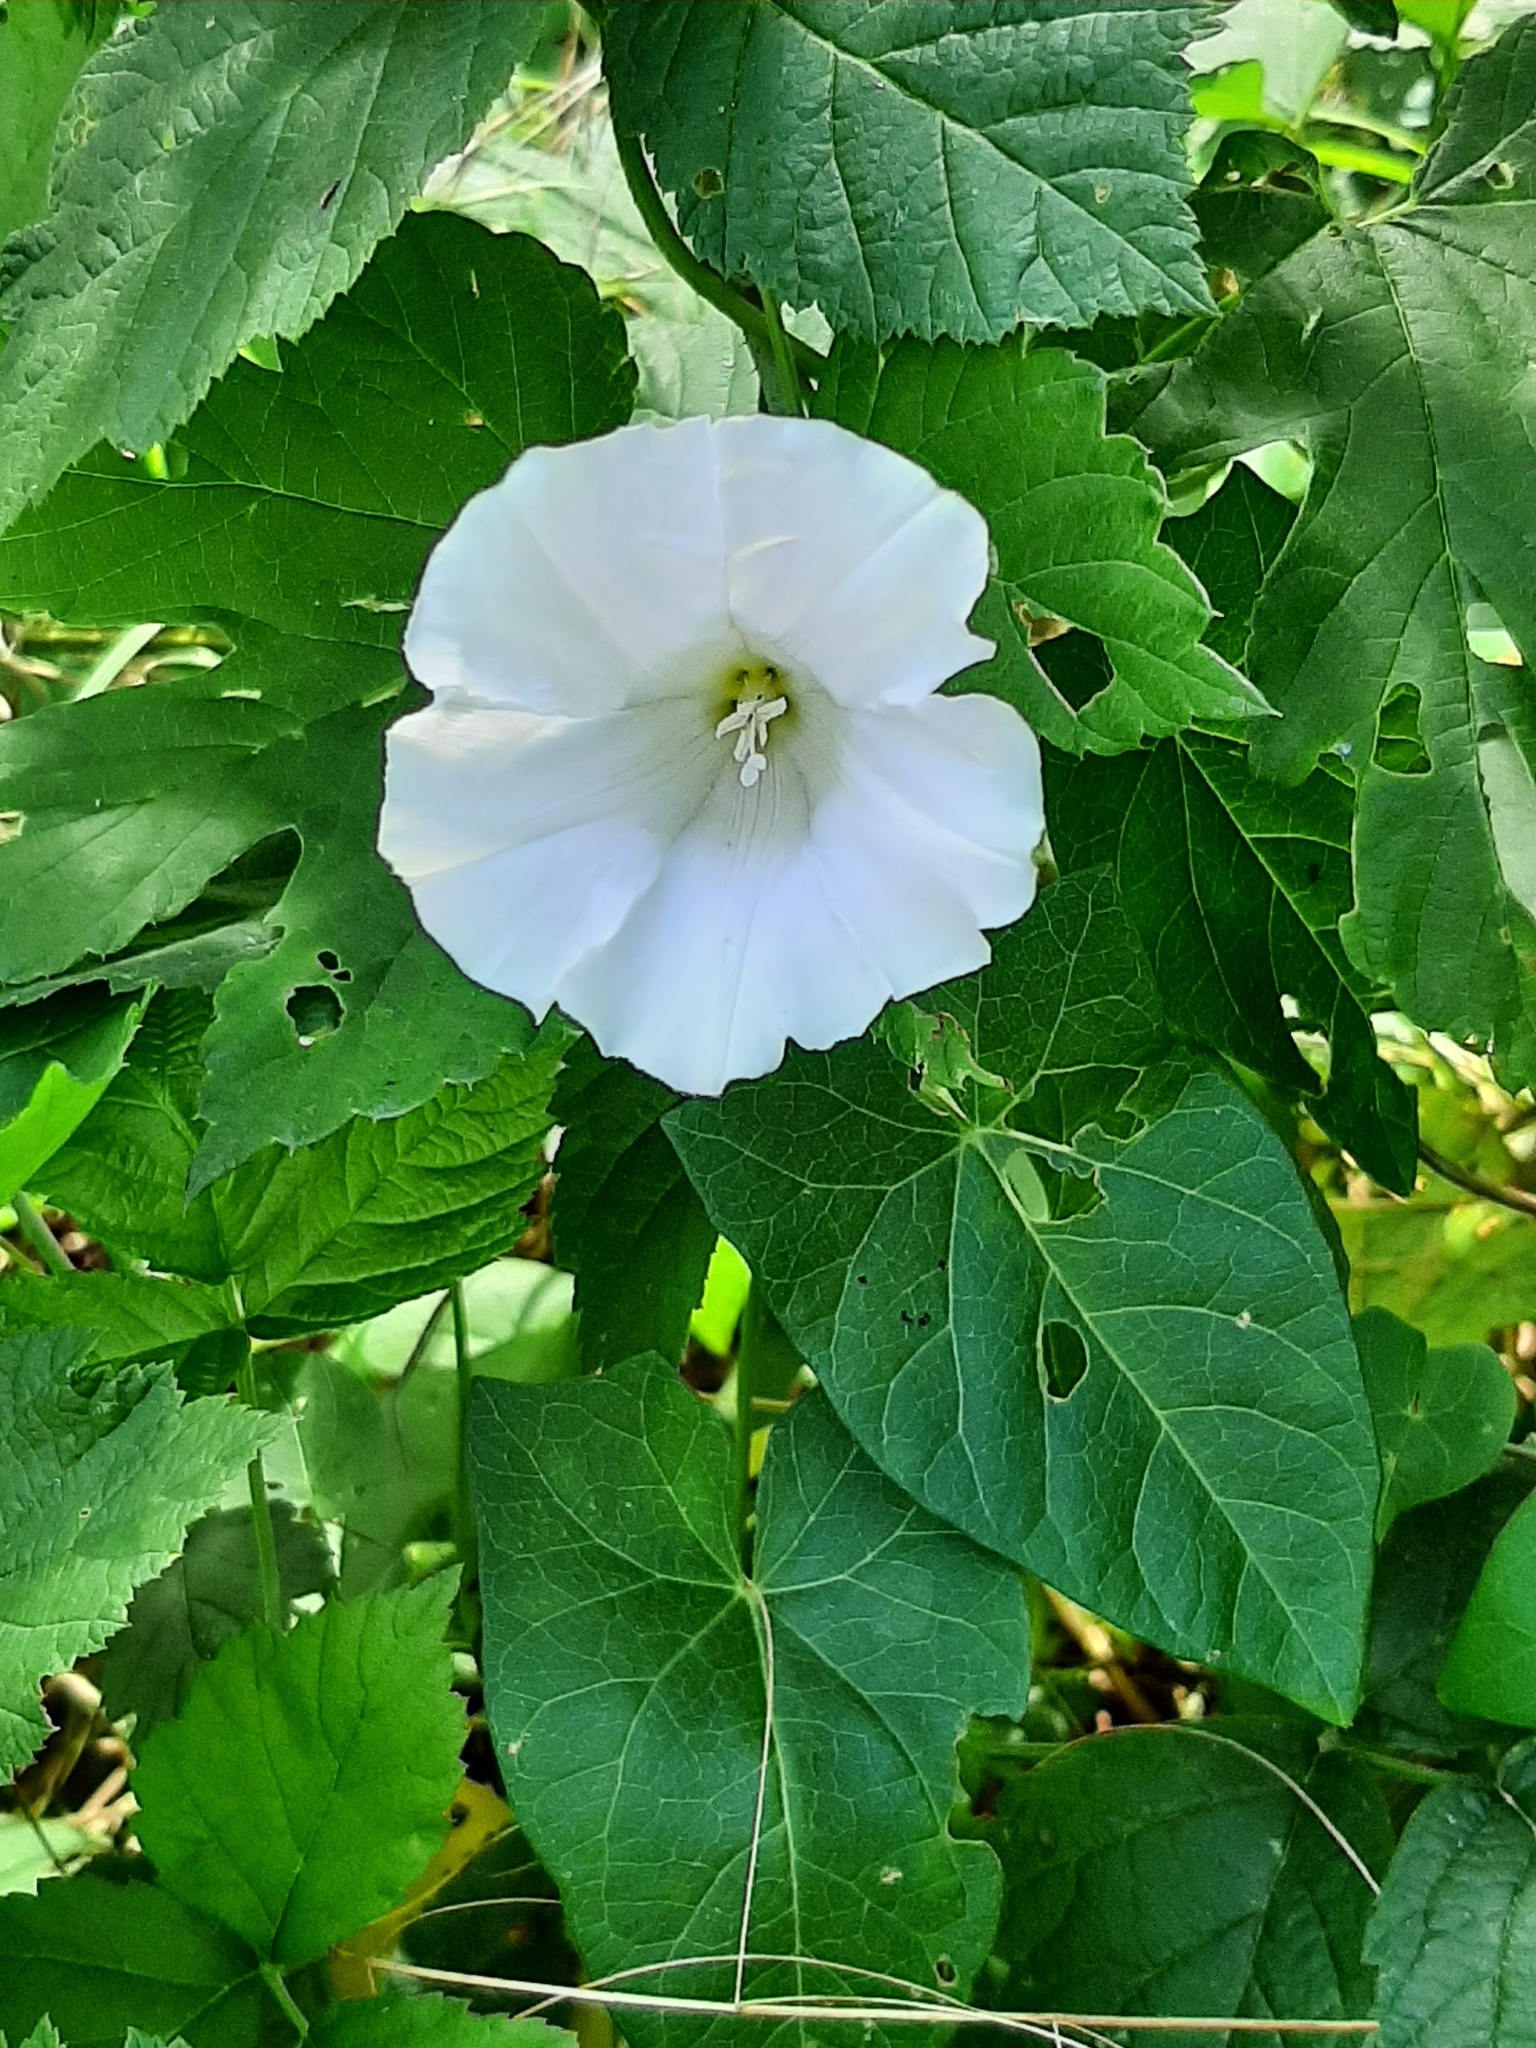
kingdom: Plantae
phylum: Tracheophyta
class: Magnoliopsida
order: Solanales
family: Convolvulaceae
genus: Calystegia
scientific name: Calystegia sepium
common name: Hedge bindweed
